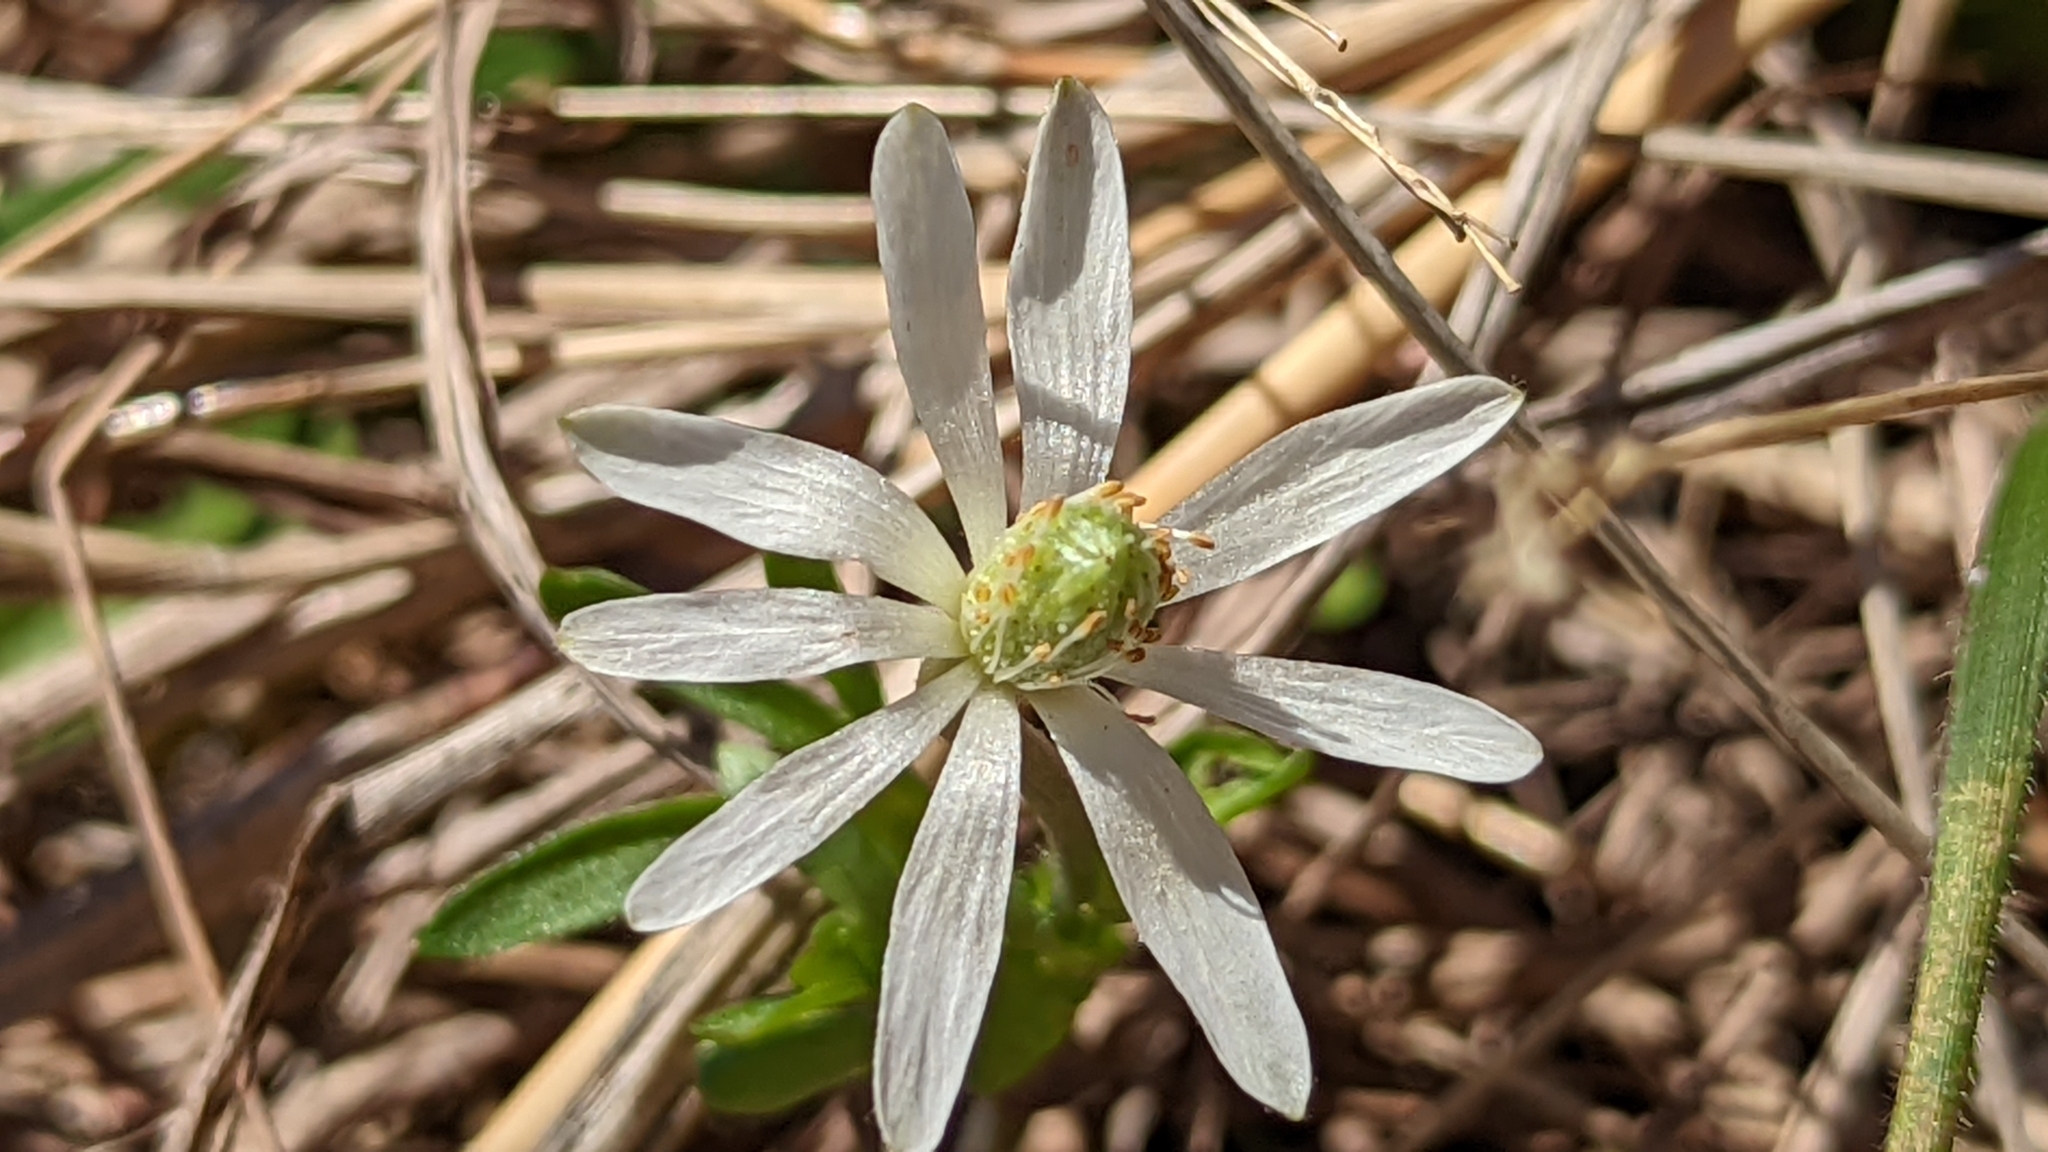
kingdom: Plantae
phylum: Tracheophyta
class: Magnoliopsida
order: Ranunculales
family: Ranunculaceae
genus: Anemone
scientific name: Anemone berlandieri
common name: Ten-petal anemone
